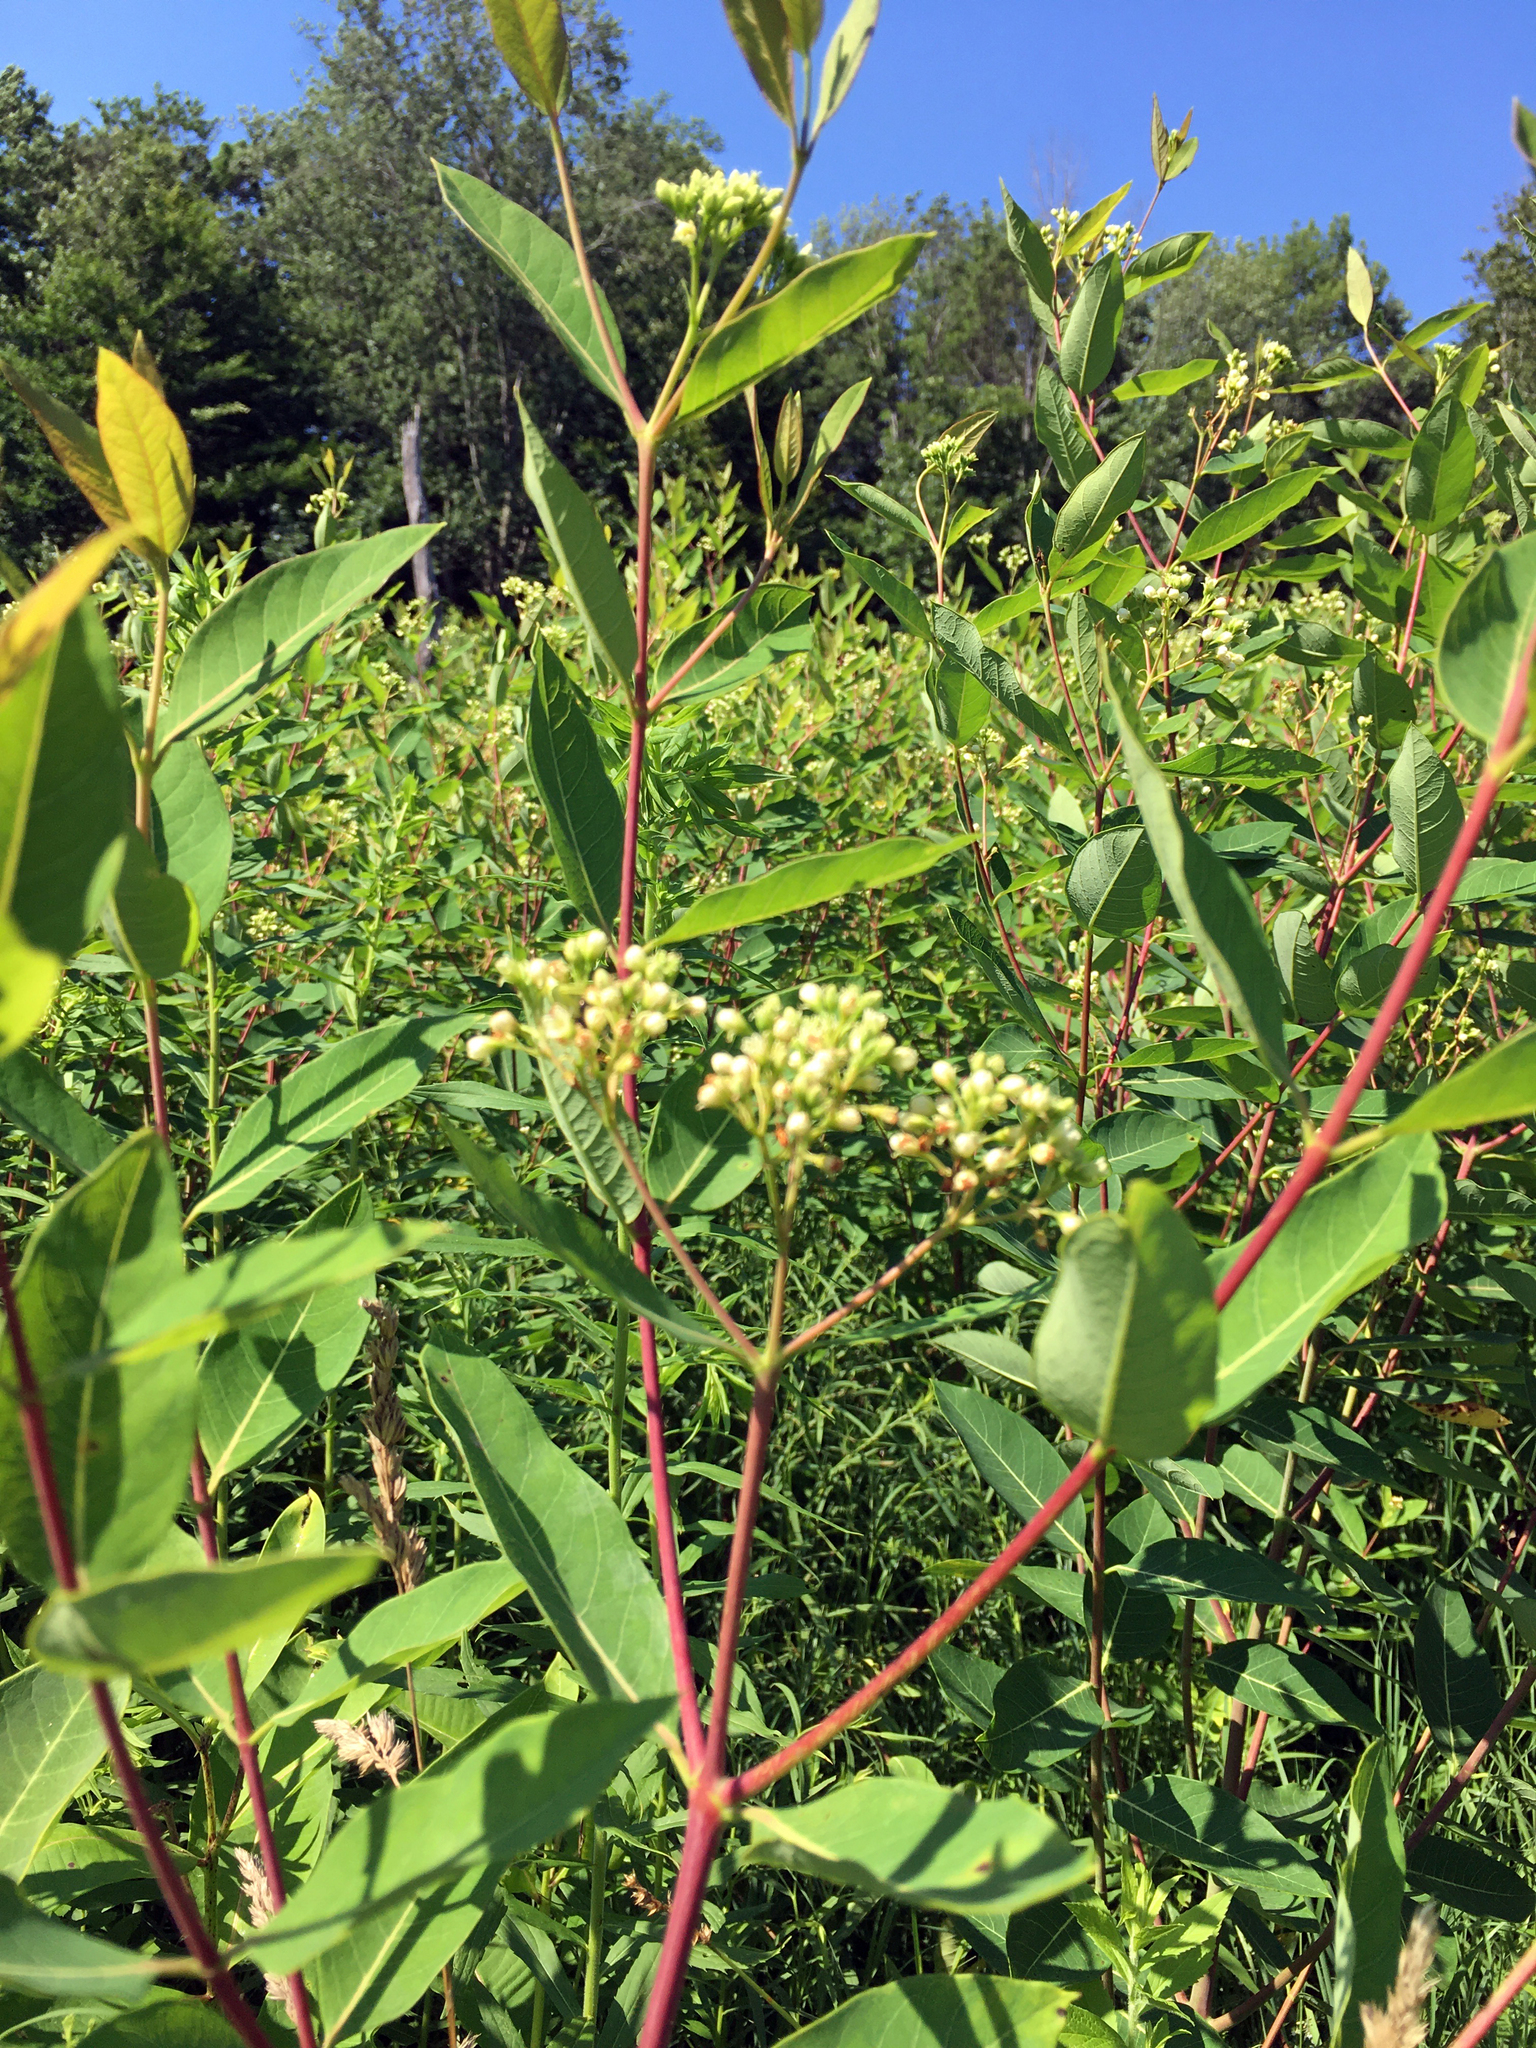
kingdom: Plantae
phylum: Tracheophyta
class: Magnoliopsida
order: Gentianales
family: Apocynaceae
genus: Apocynum
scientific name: Apocynum cannabinum
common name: Hemp dogbane
